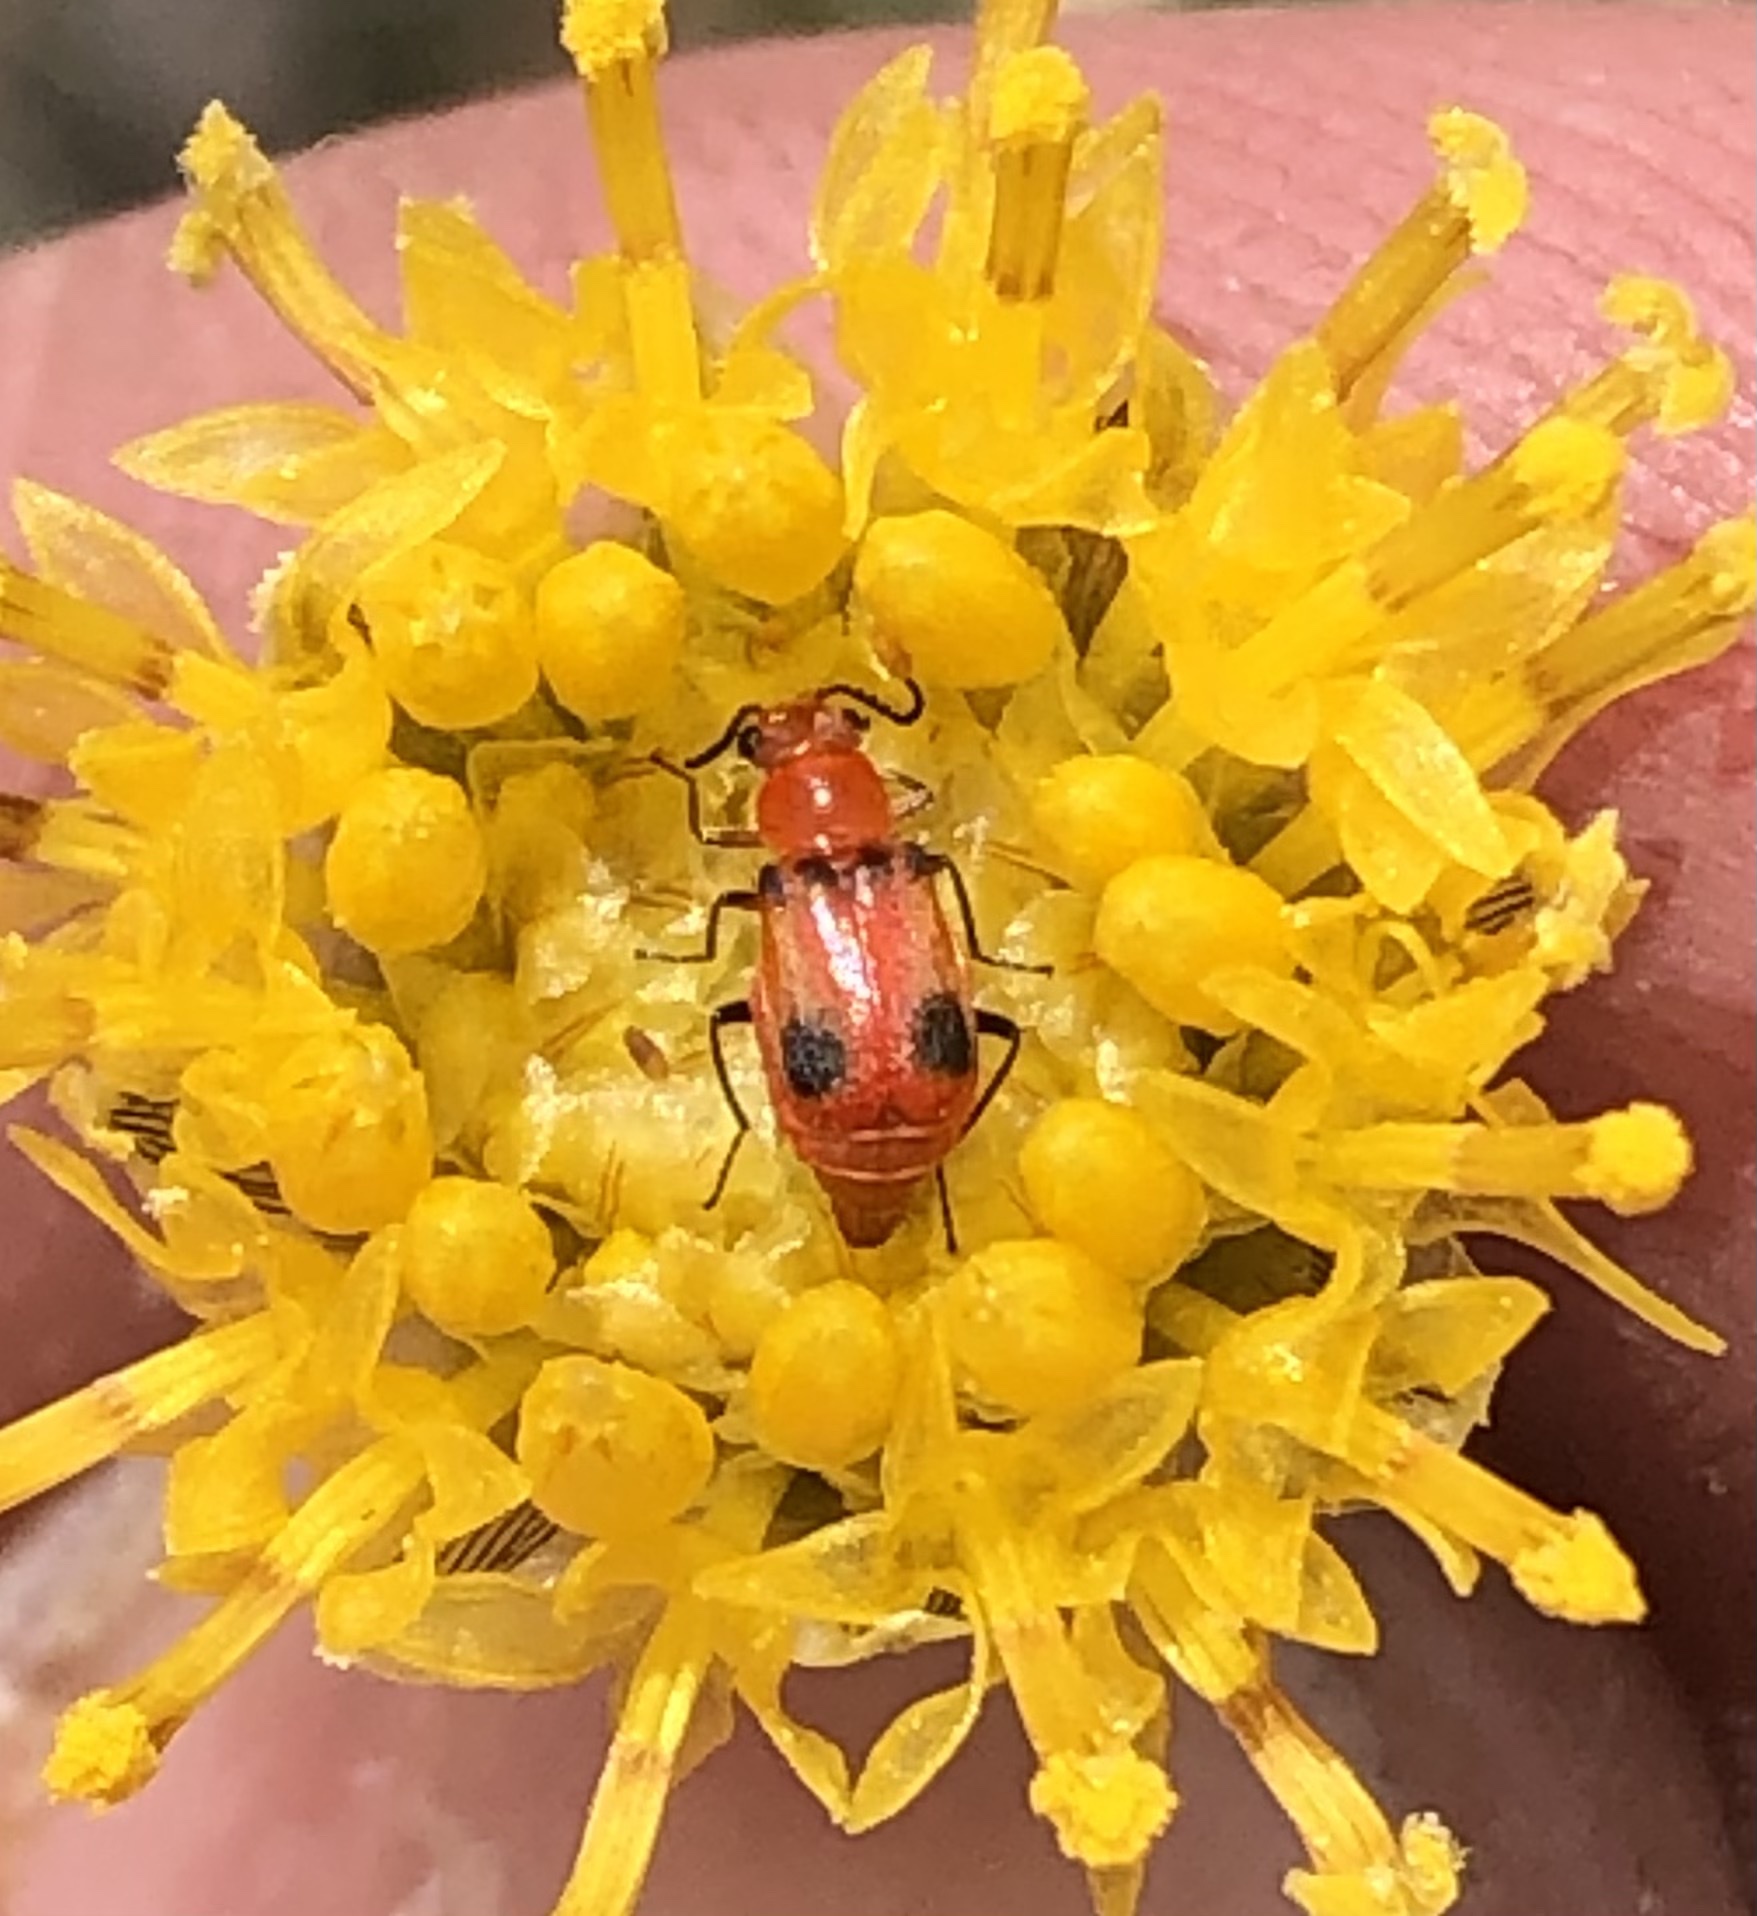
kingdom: Animalia
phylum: Arthropoda
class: Insecta
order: Coleoptera
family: Malachiidae
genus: Attalus
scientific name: Attalus
